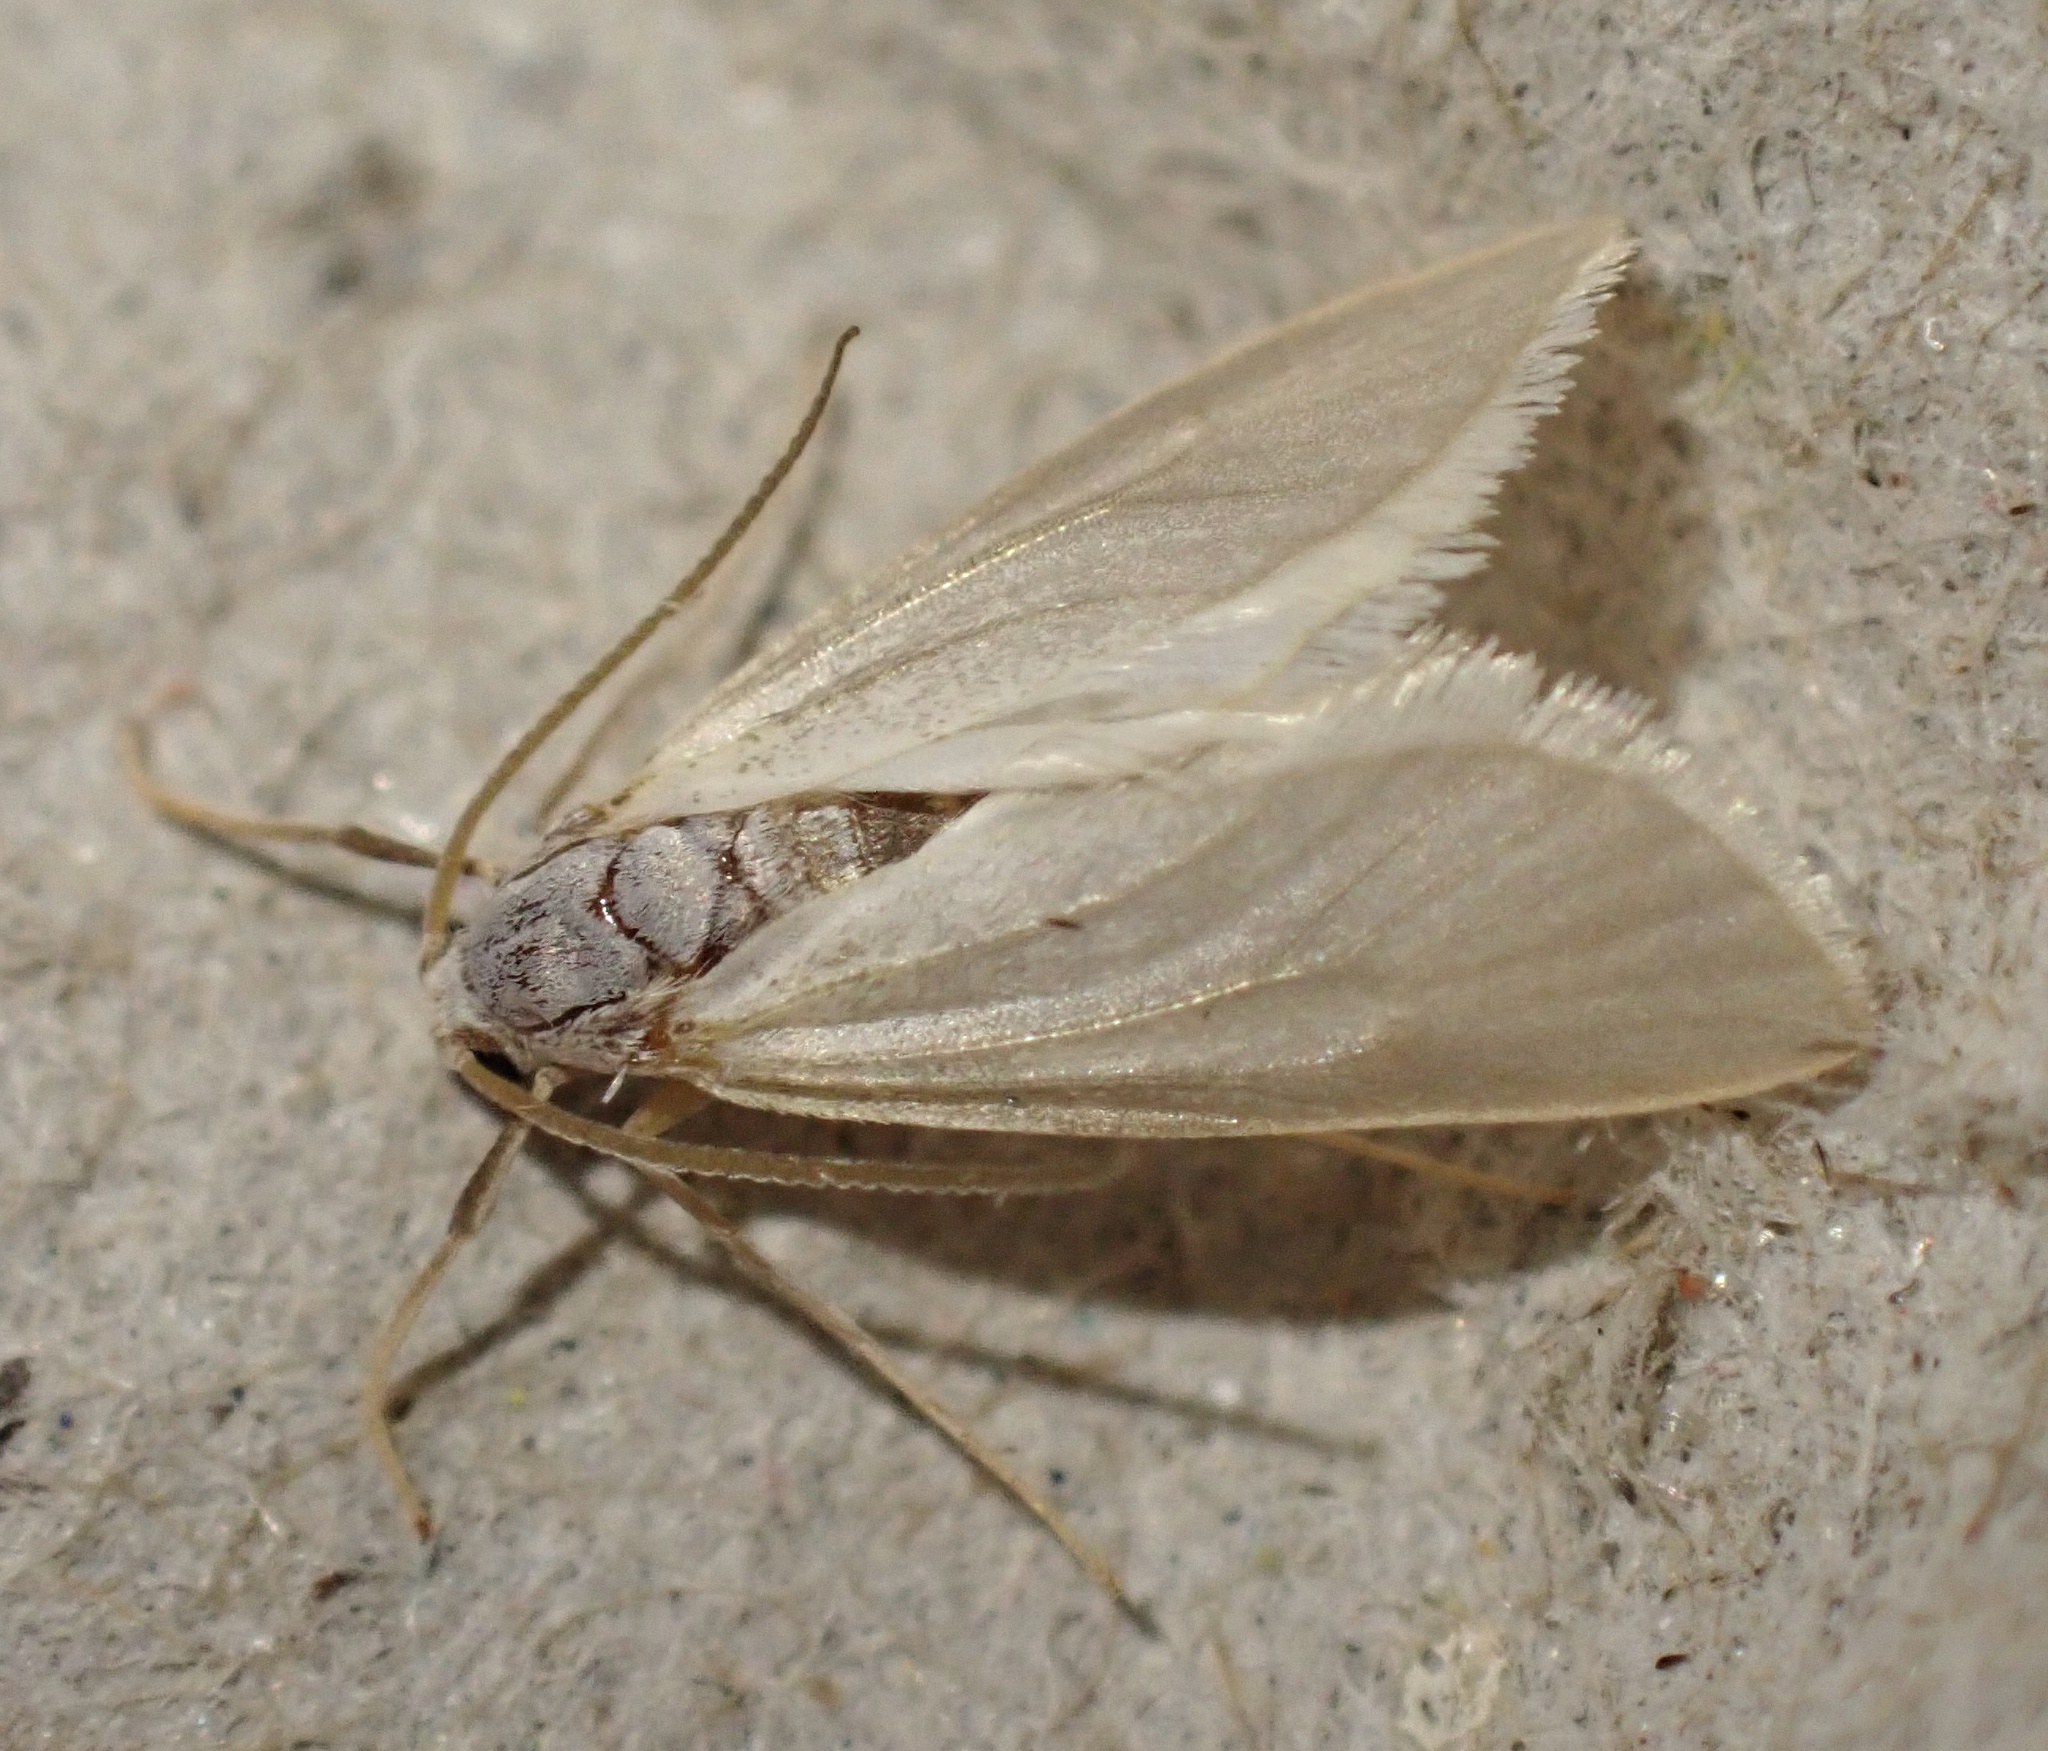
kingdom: Animalia
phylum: Arthropoda
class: Insecta
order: Lepidoptera
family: Crambidae
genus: Acentria
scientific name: Acentria ephemerella
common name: European water moth
